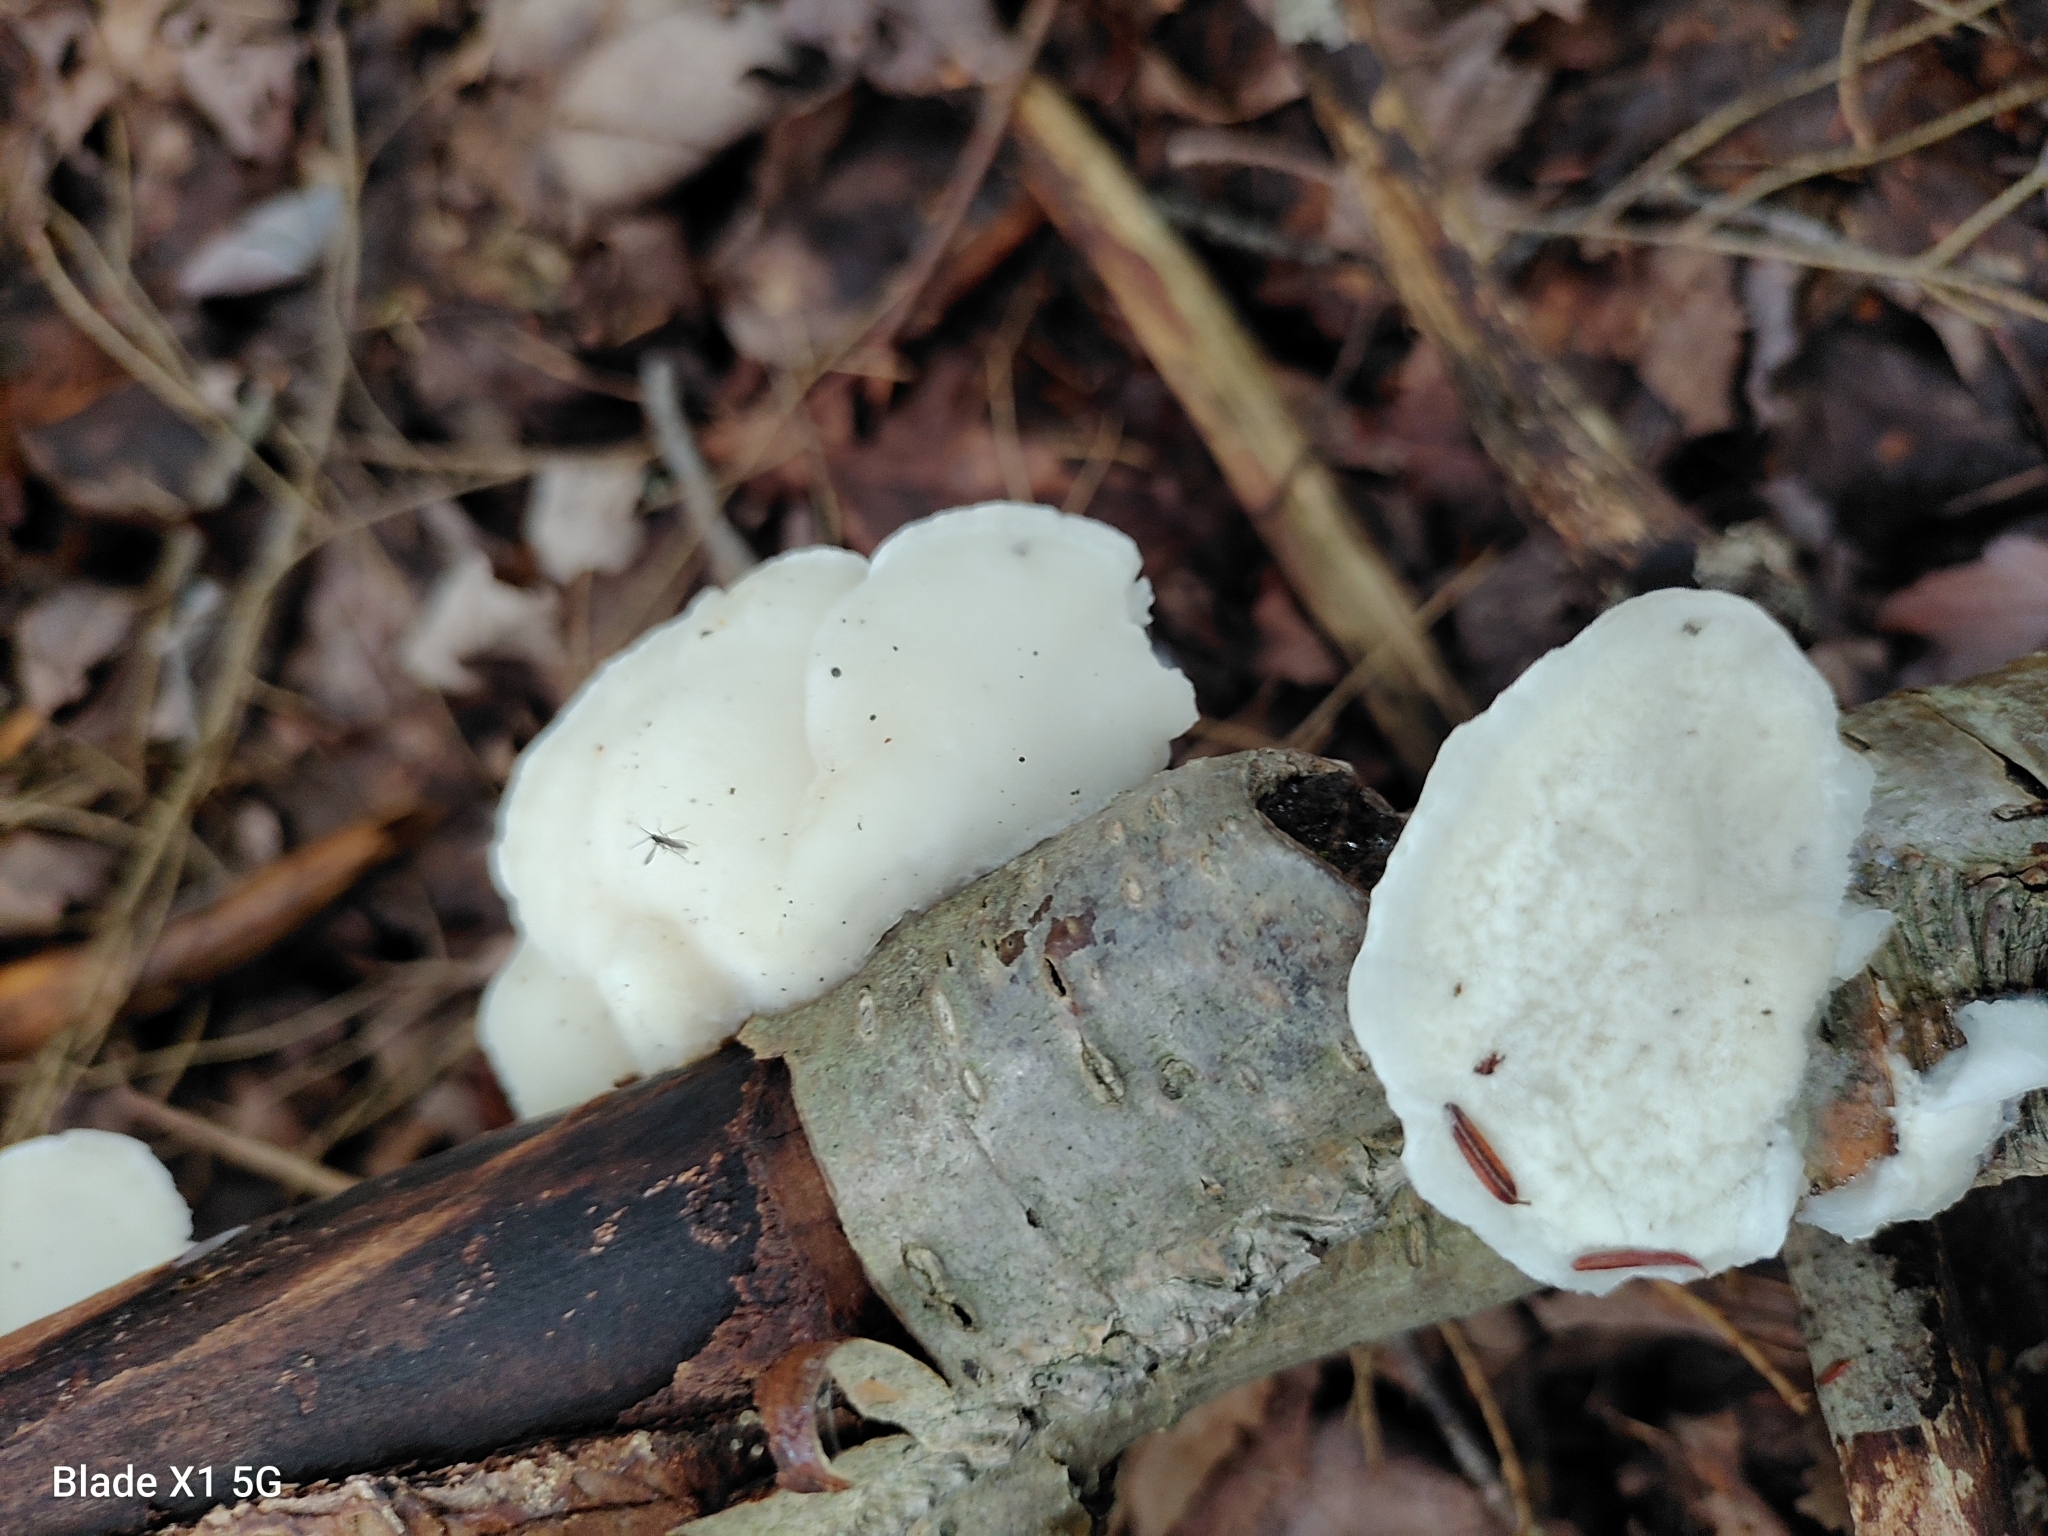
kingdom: Fungi
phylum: Basidiomycota
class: Agaricomycetes
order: Polyporales
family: Incrustoporiaceae
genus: Tyromyces
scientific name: Tyromyces chioneus
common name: White cheese polypore
